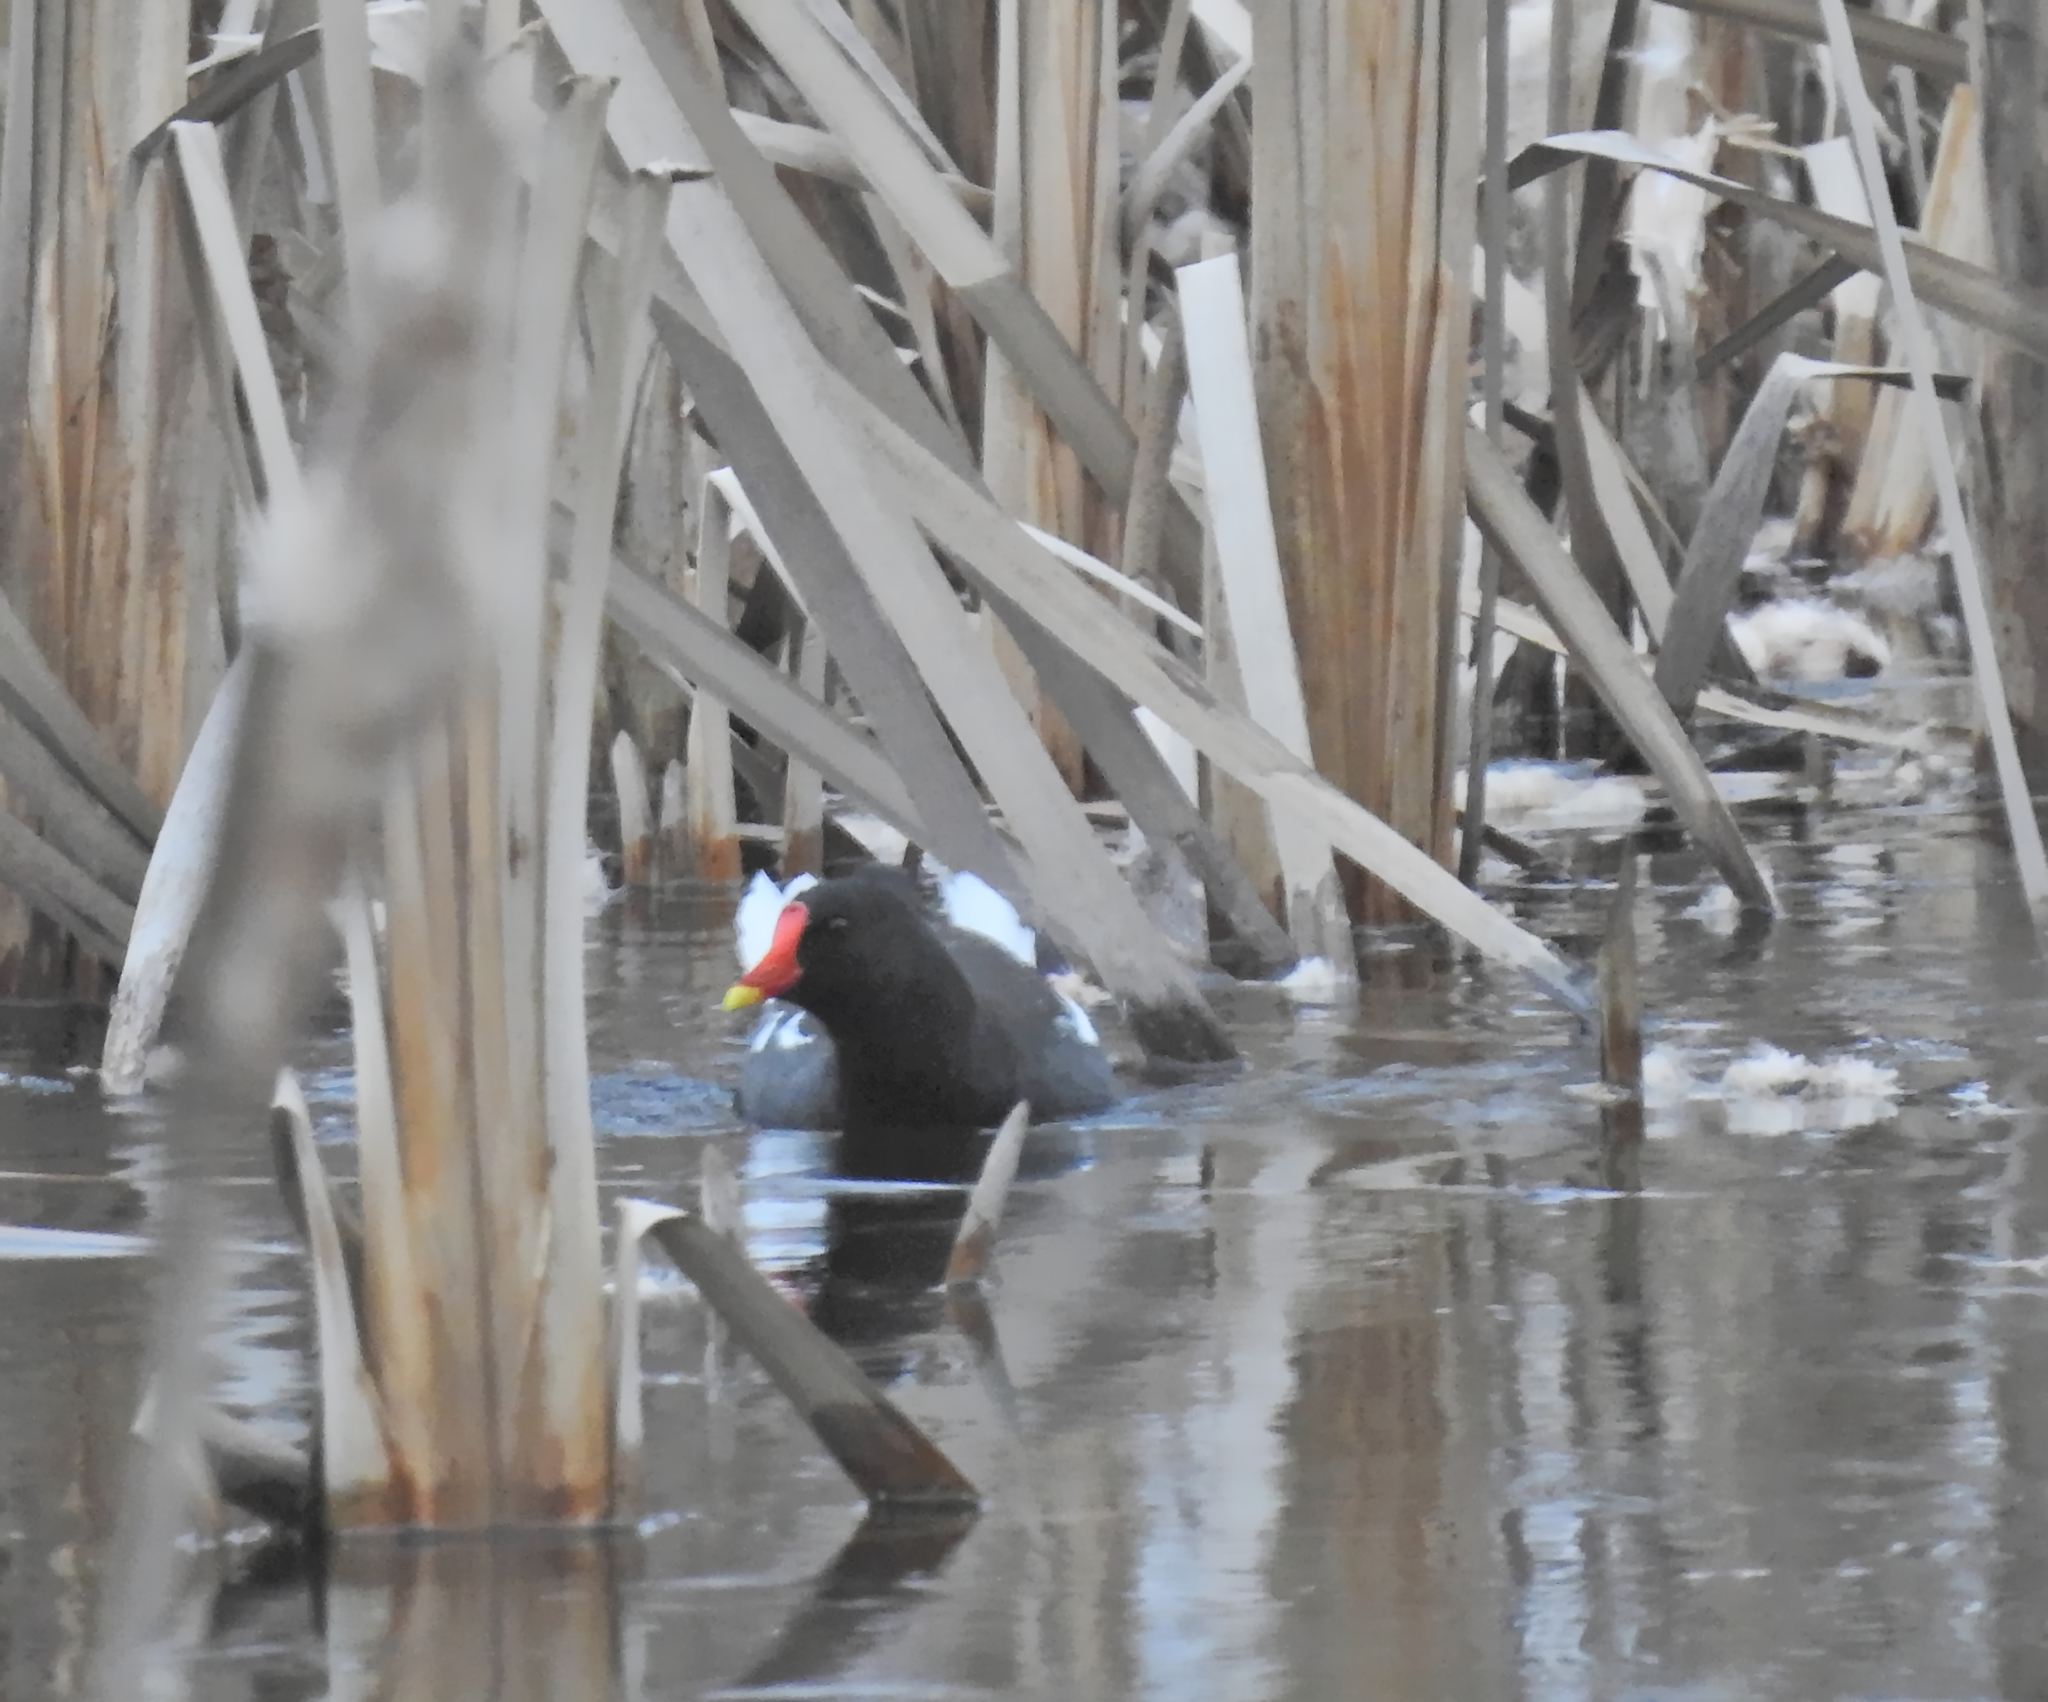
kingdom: Animalia
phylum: Chordata
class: Aves
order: Gruiformes
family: Rallidae
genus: Gallinula
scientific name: Gallinula chloropus
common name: Common moorhen
